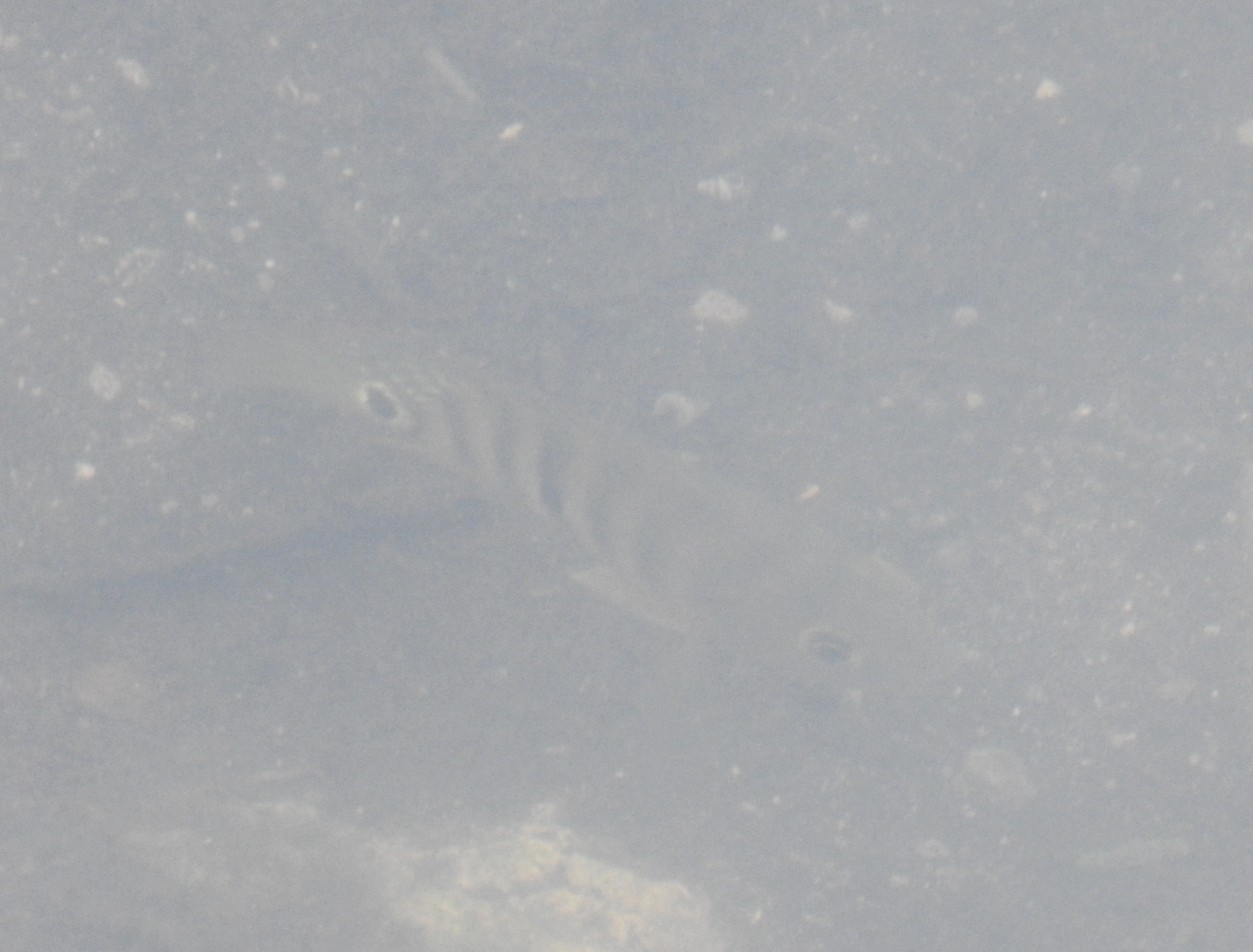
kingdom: Animalia
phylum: Chordata
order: Perciformes
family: Cichlidae
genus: Mayaheros
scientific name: Mayaheros urophthalmus
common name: Mayan cichlid
